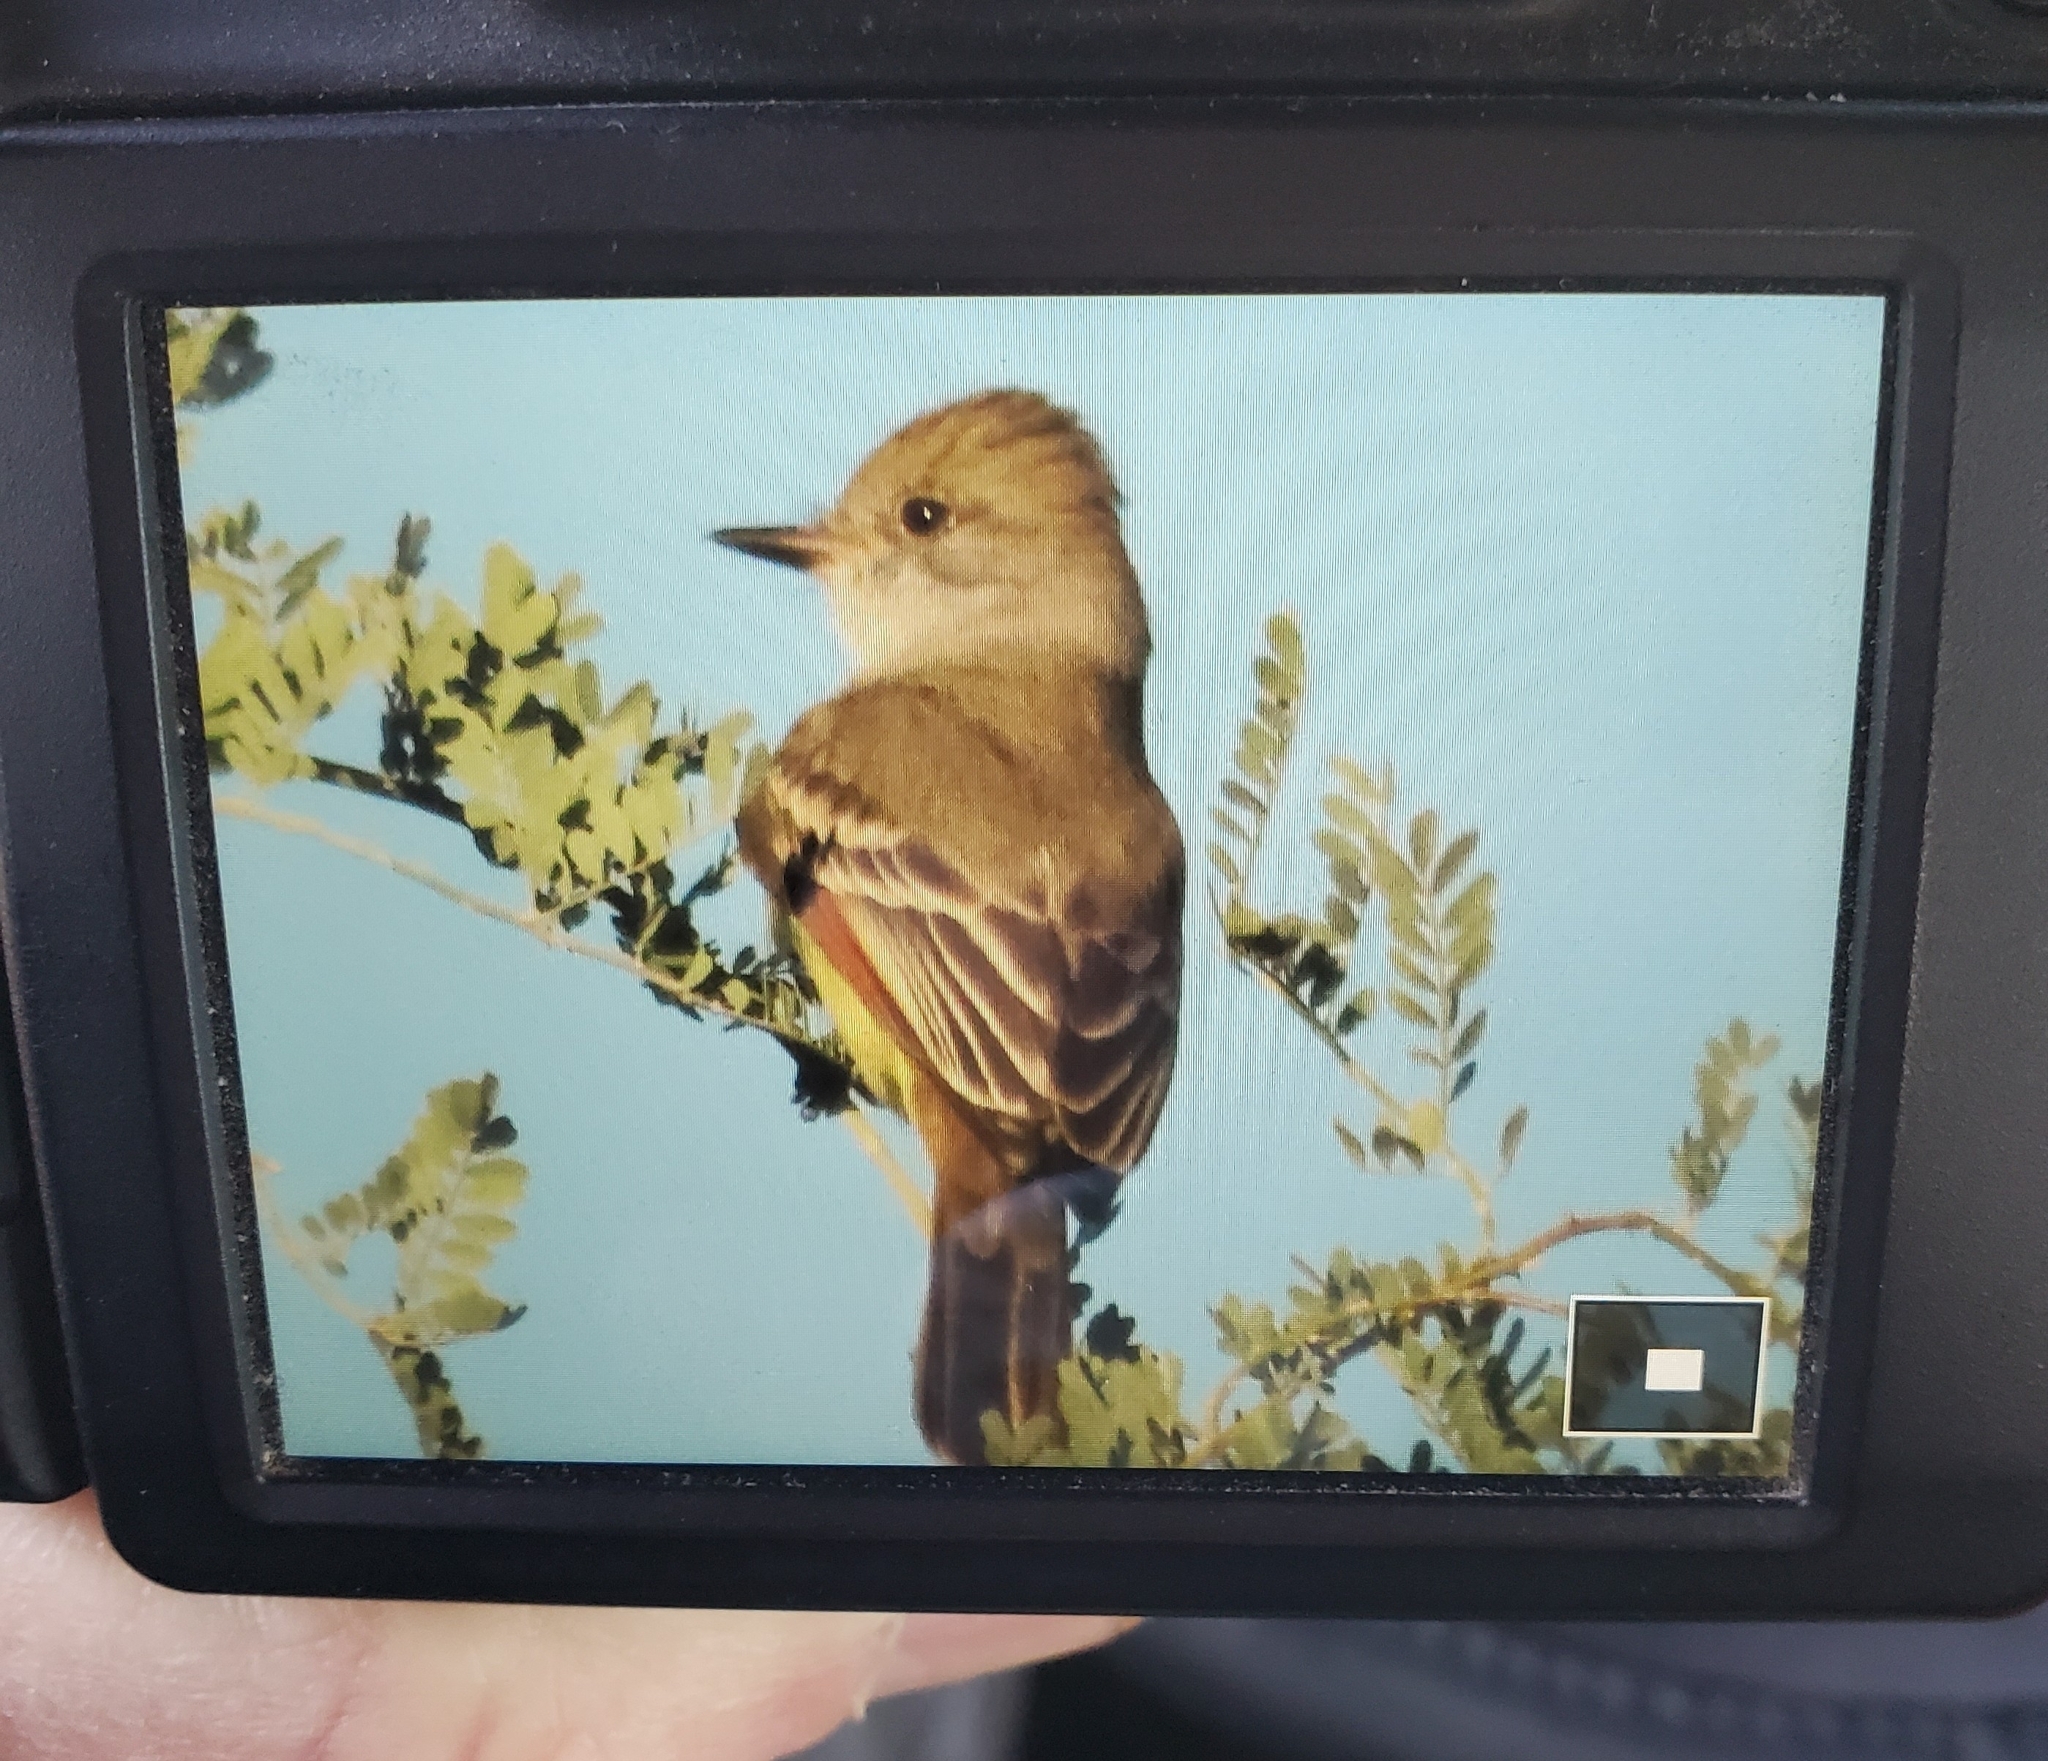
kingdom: Animalia
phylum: Chordata
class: Aves
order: Passeriformes
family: Tyrannidae
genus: Myiarchus
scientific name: Myiarchus cinerascens
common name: Ash-throated flycatcher
